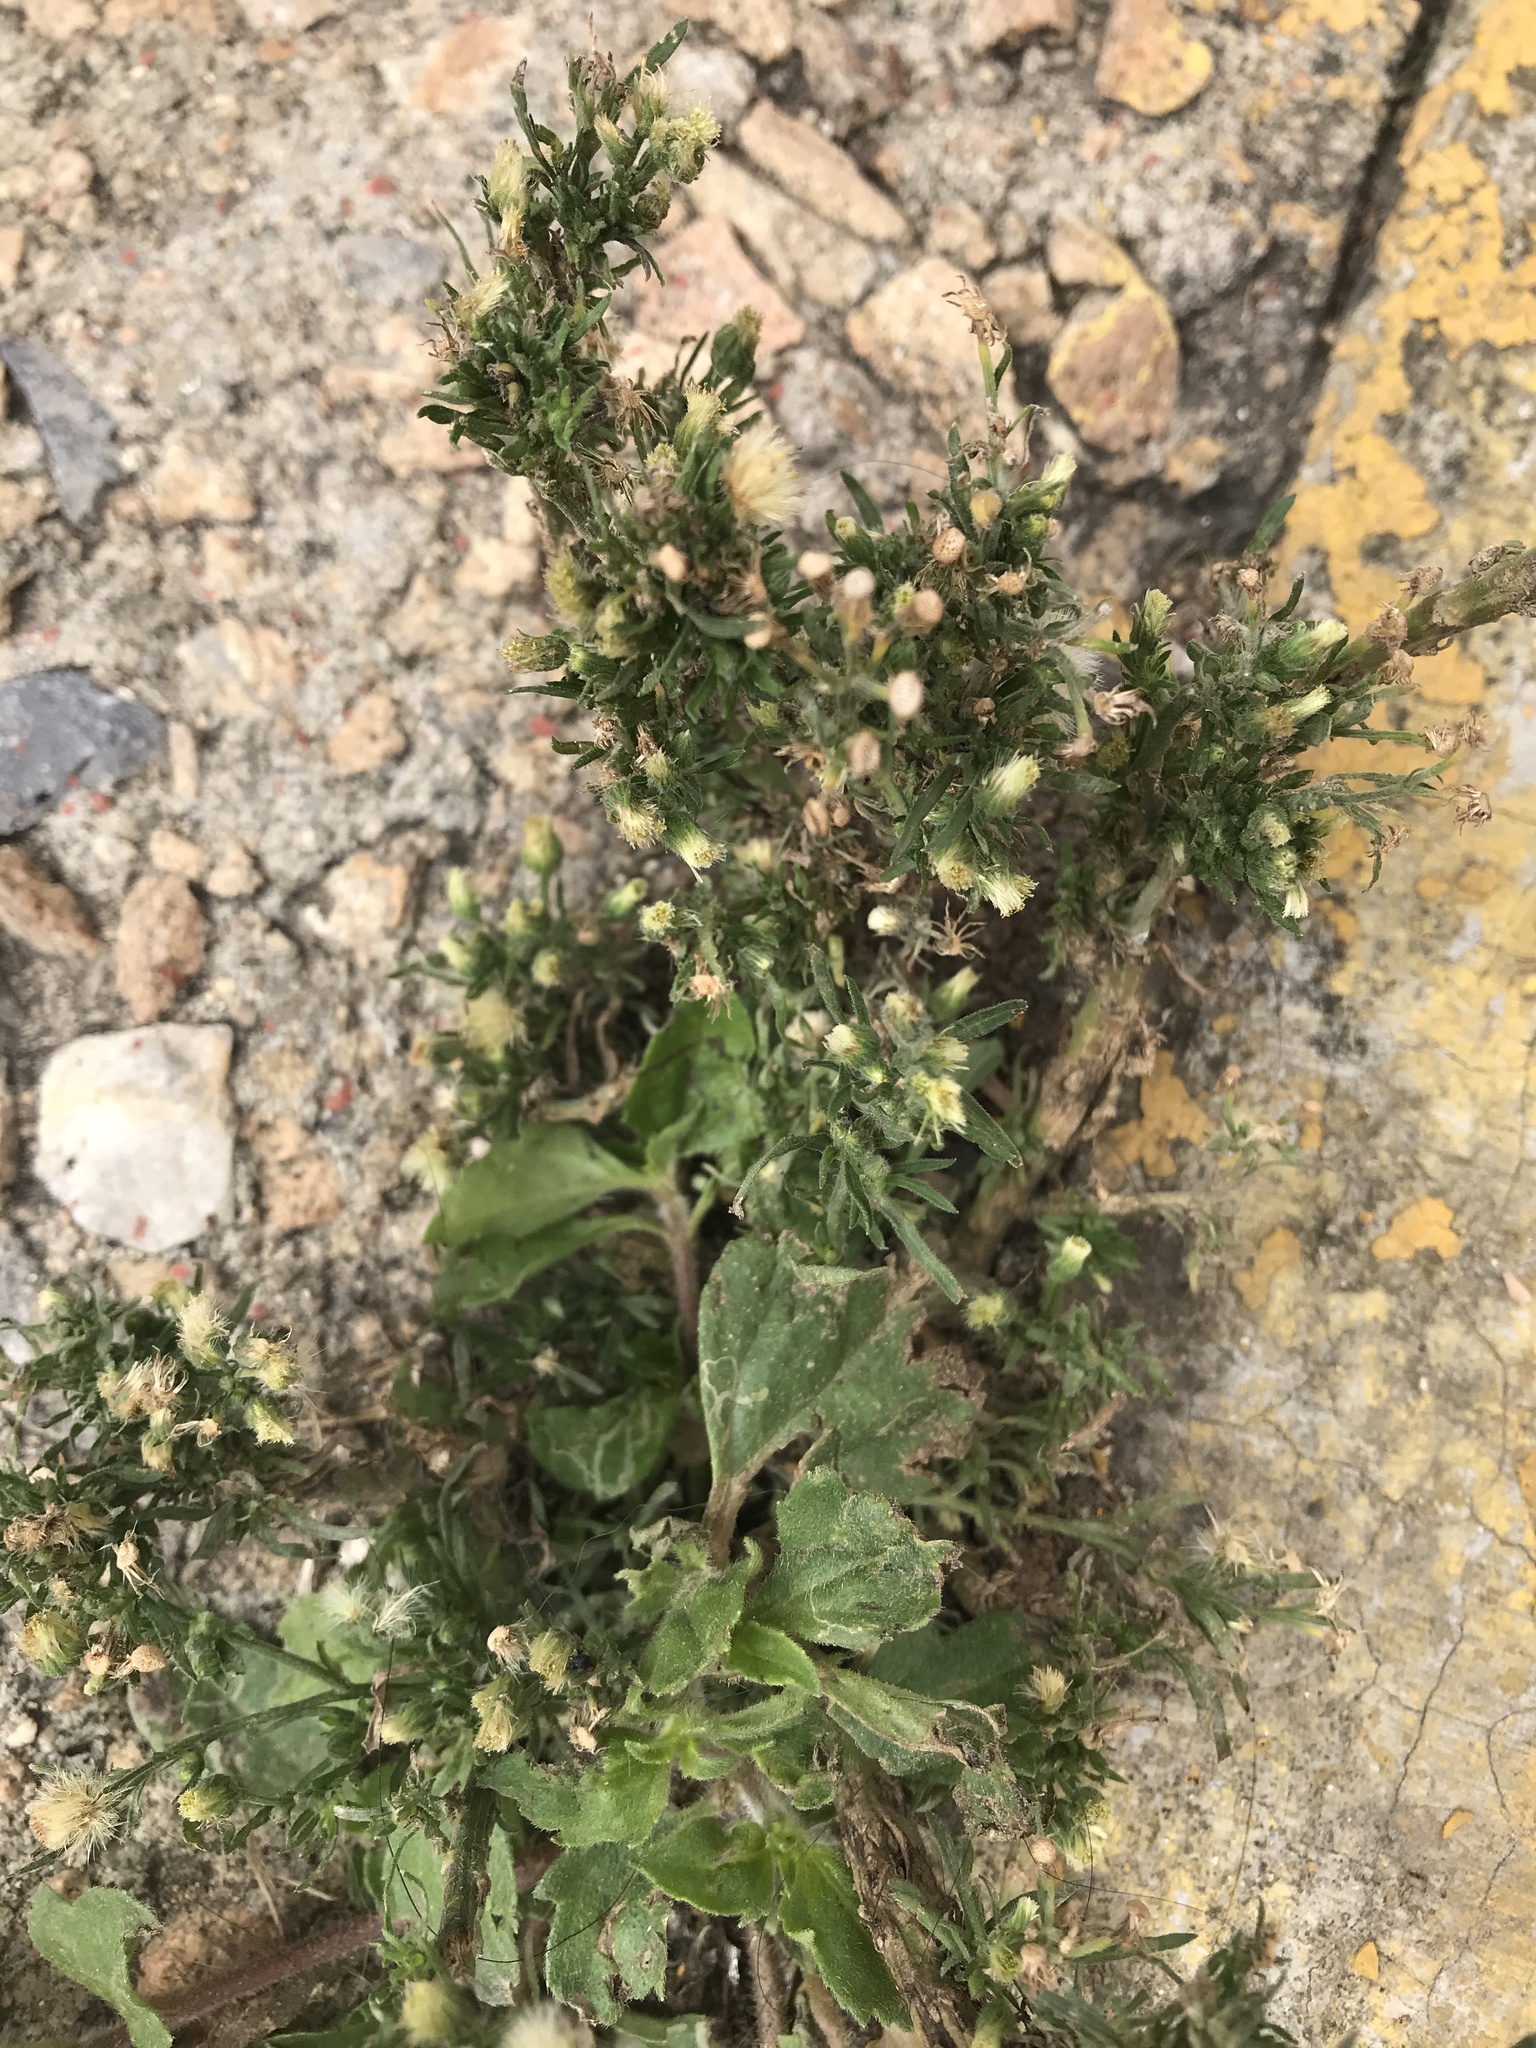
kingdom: Plantae
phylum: Tracheophyta
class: Magnoliopsida
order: Asterales
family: Asteraceae
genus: Erigeron
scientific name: Erigeron bonariensis
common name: Argentine fleabane
